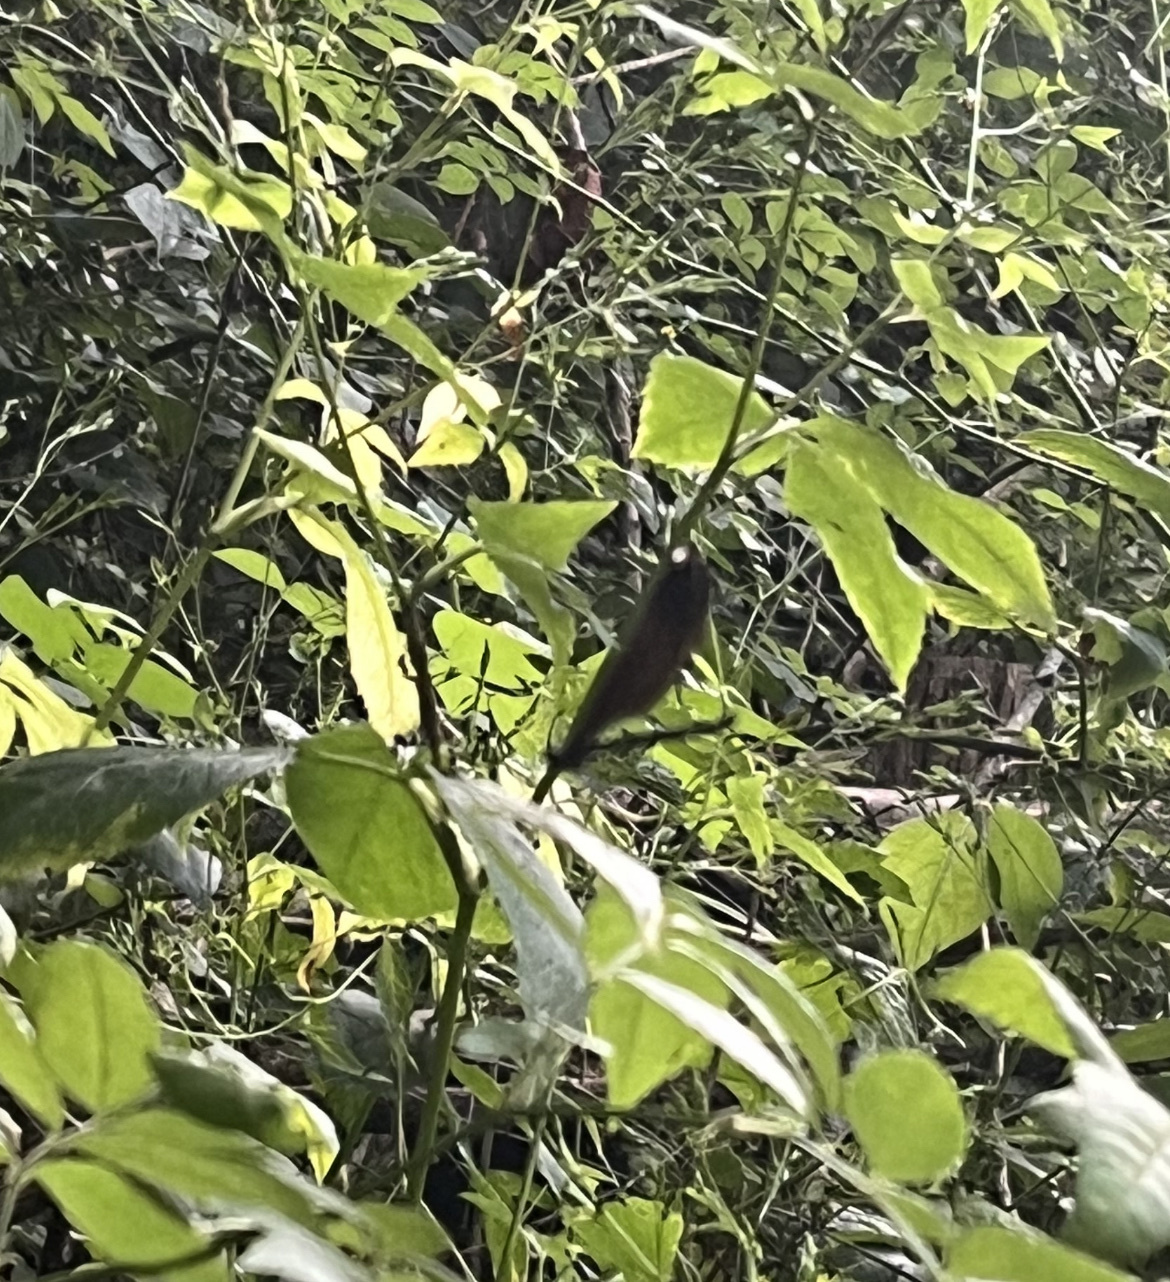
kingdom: Animalia
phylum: Arthropoda
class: Insecta
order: Odonata
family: Calopterygidae
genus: Calopteryx
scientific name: Calopteryx maculata
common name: Ebony jewelwing
